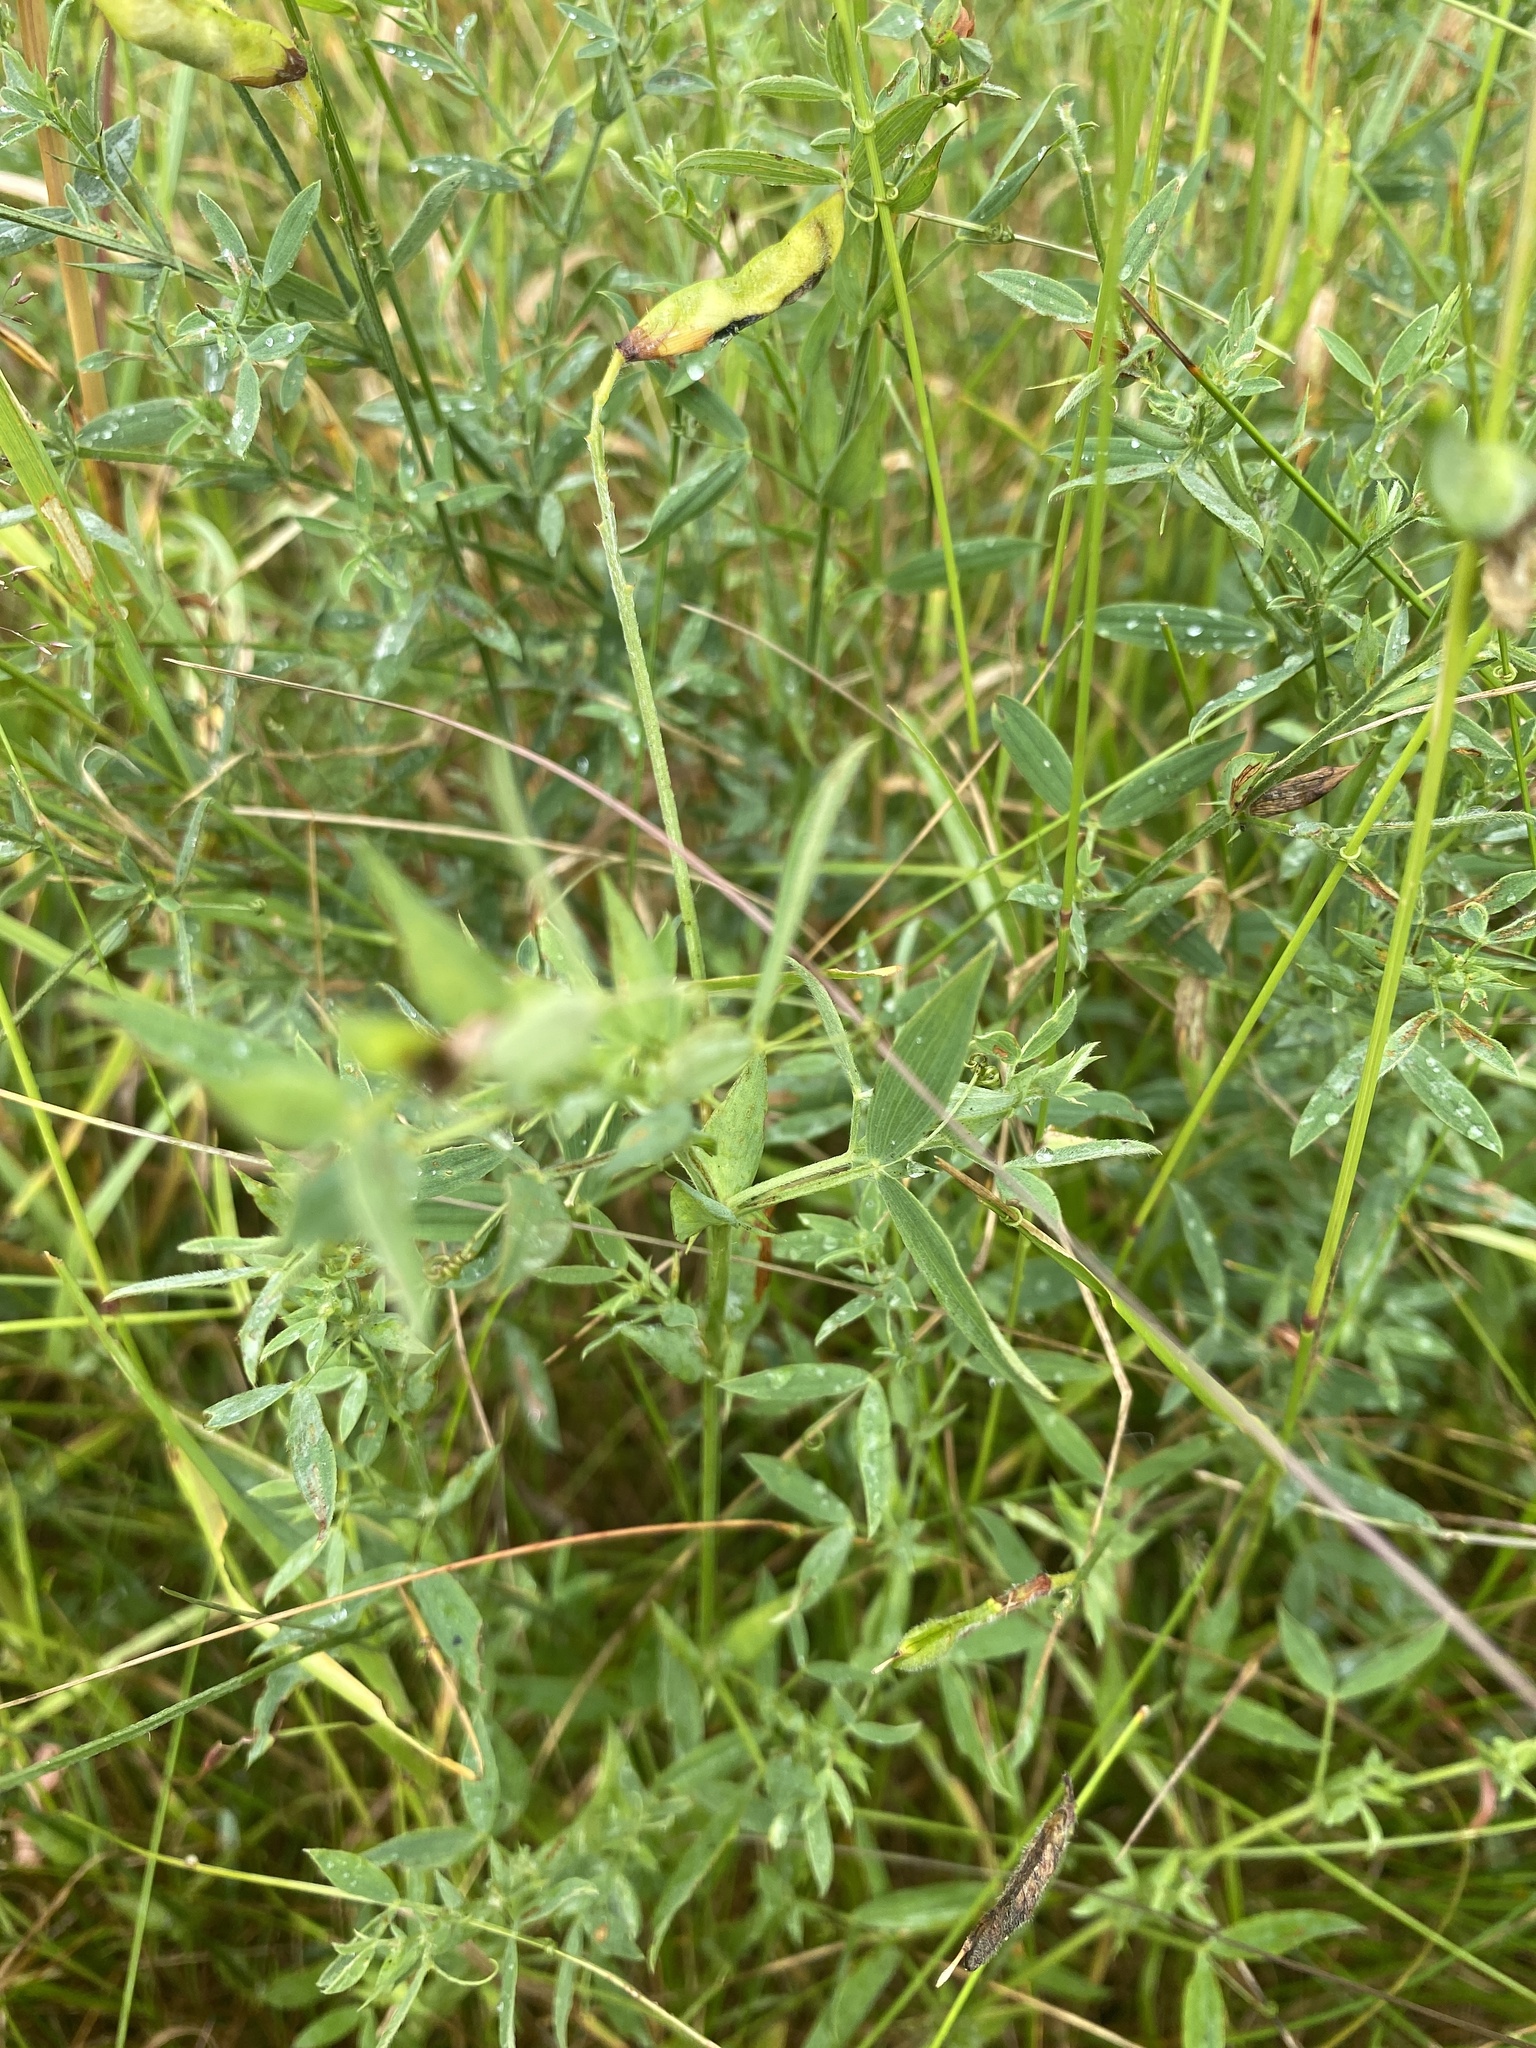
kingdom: Plantae
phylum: Tracheophyta
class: Magnoliopsida
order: Fabales
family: Fabaceae
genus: Lathyrus
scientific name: Lathyrus pratensis
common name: Meadow vetchling
